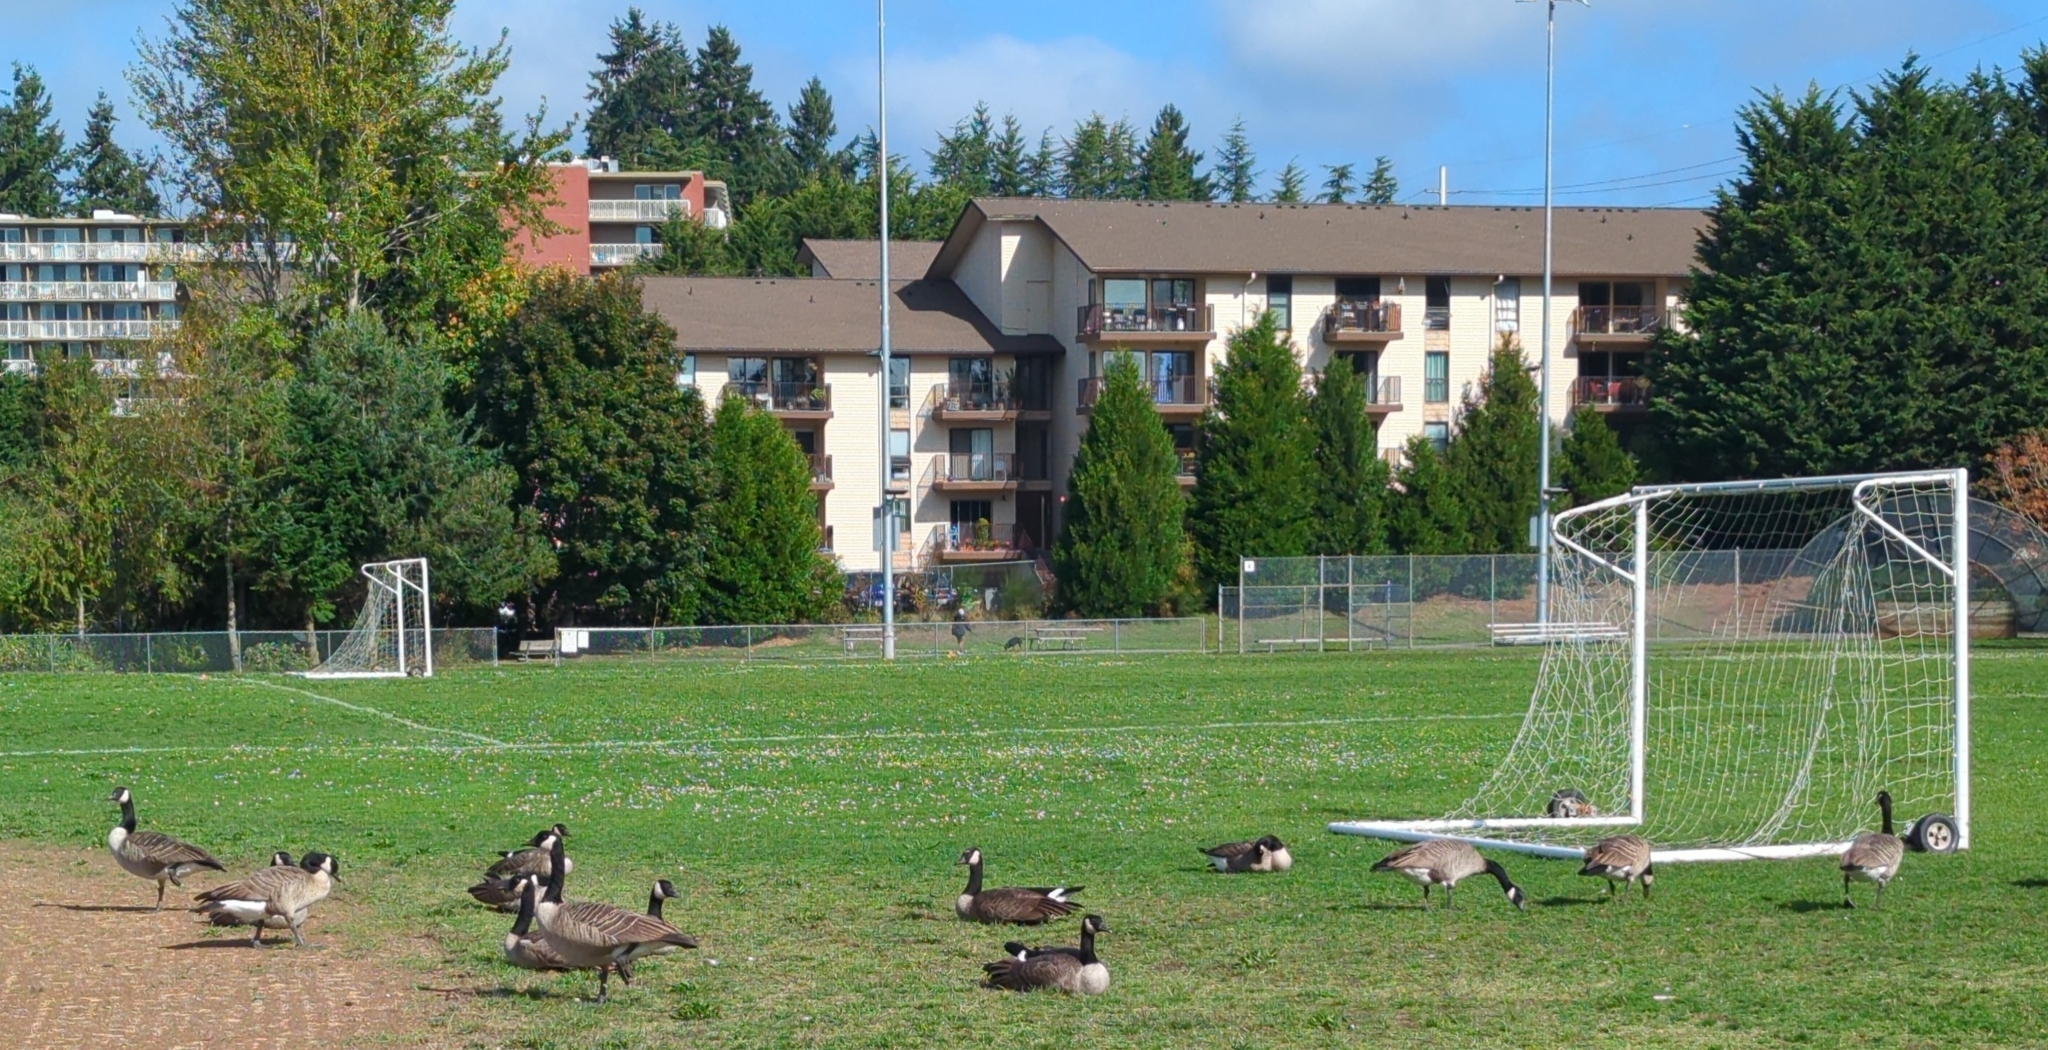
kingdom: Animalia
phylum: Chordata
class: Aves
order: Anseriformes
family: Anatidae
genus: Branta
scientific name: Branta canadensis
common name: Canada goose
